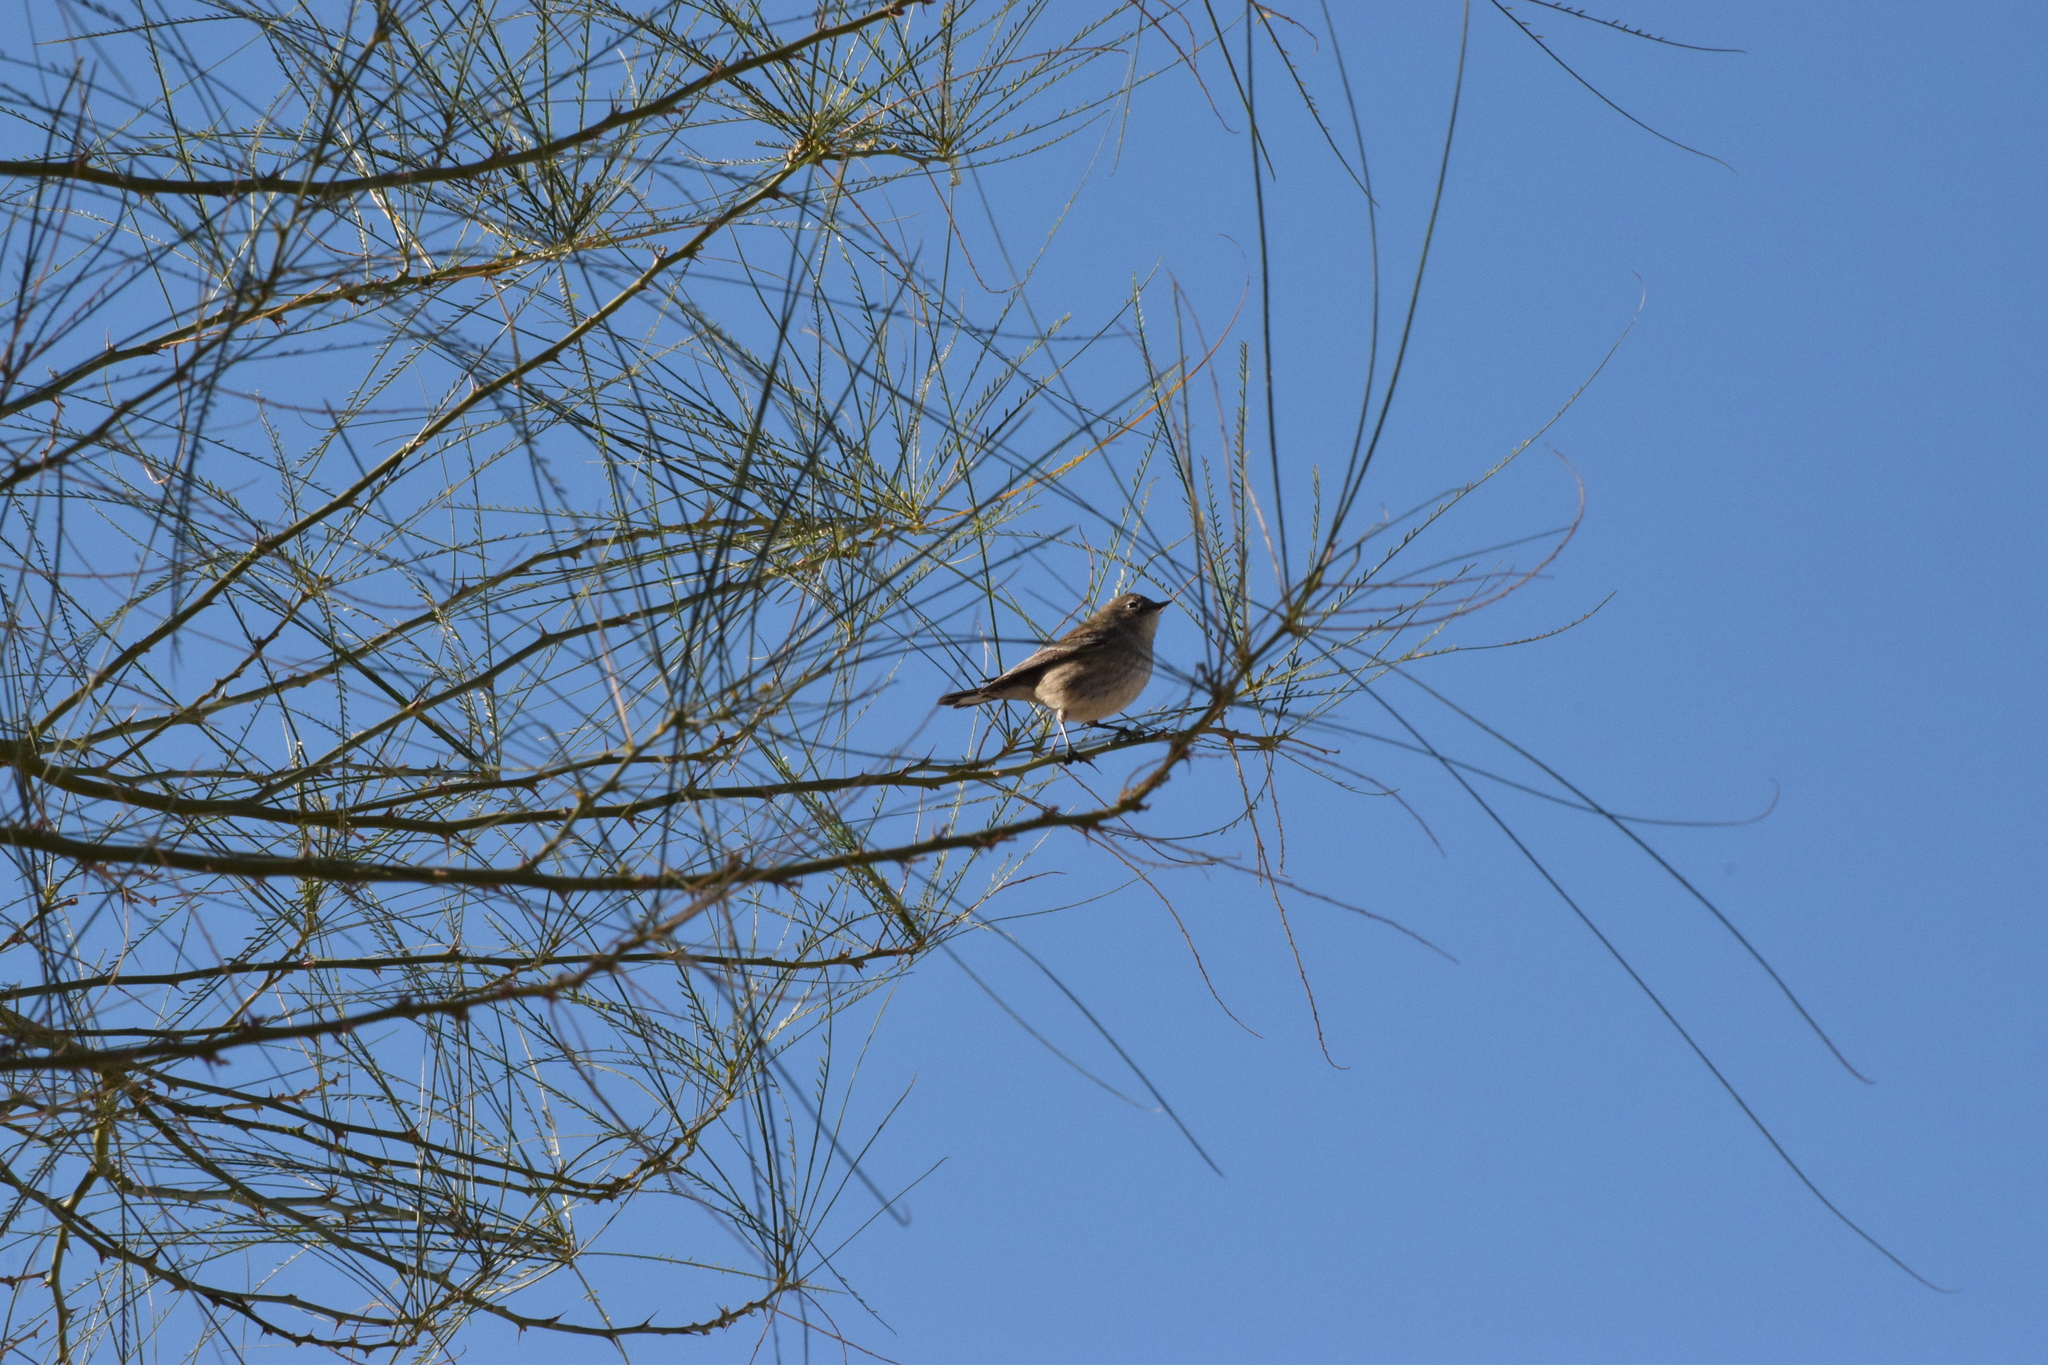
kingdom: Animalia
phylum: Chordata
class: Aves
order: Passeriformes
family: Parulidae
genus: Setophaga
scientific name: Setophaga coronata
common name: Myrtle warbler
